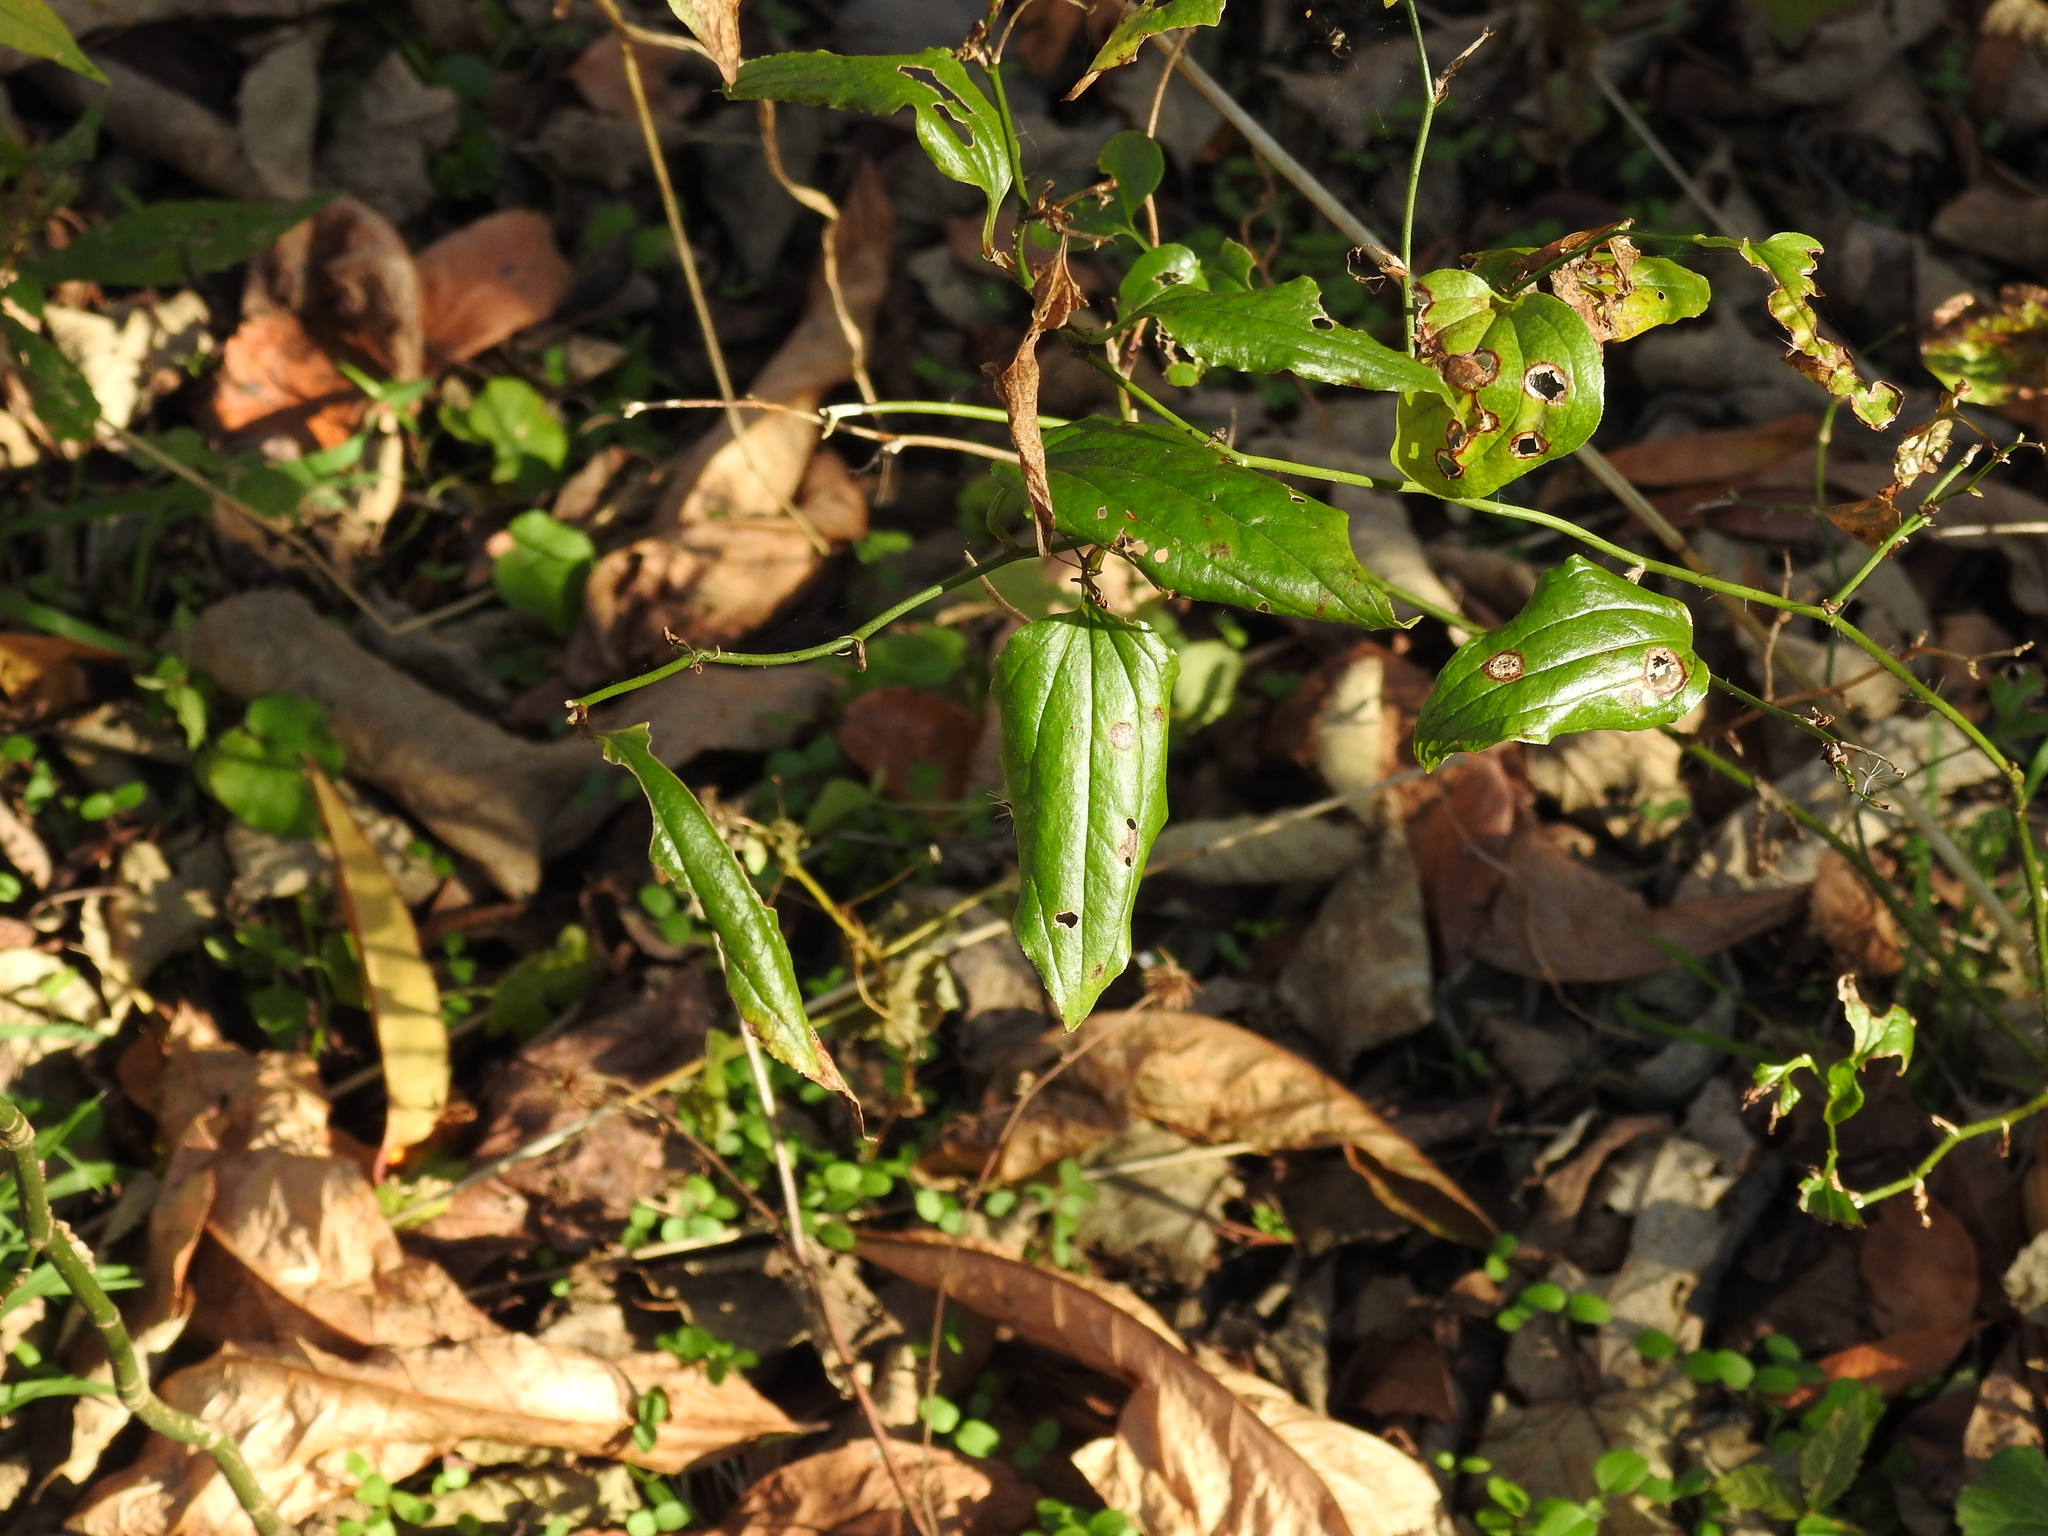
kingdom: Plantae
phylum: Tracheophyta
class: Liliopsida
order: Liliales
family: Smilacaceae
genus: Smilax
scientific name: Smilax tamnoides
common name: Hellfetter
